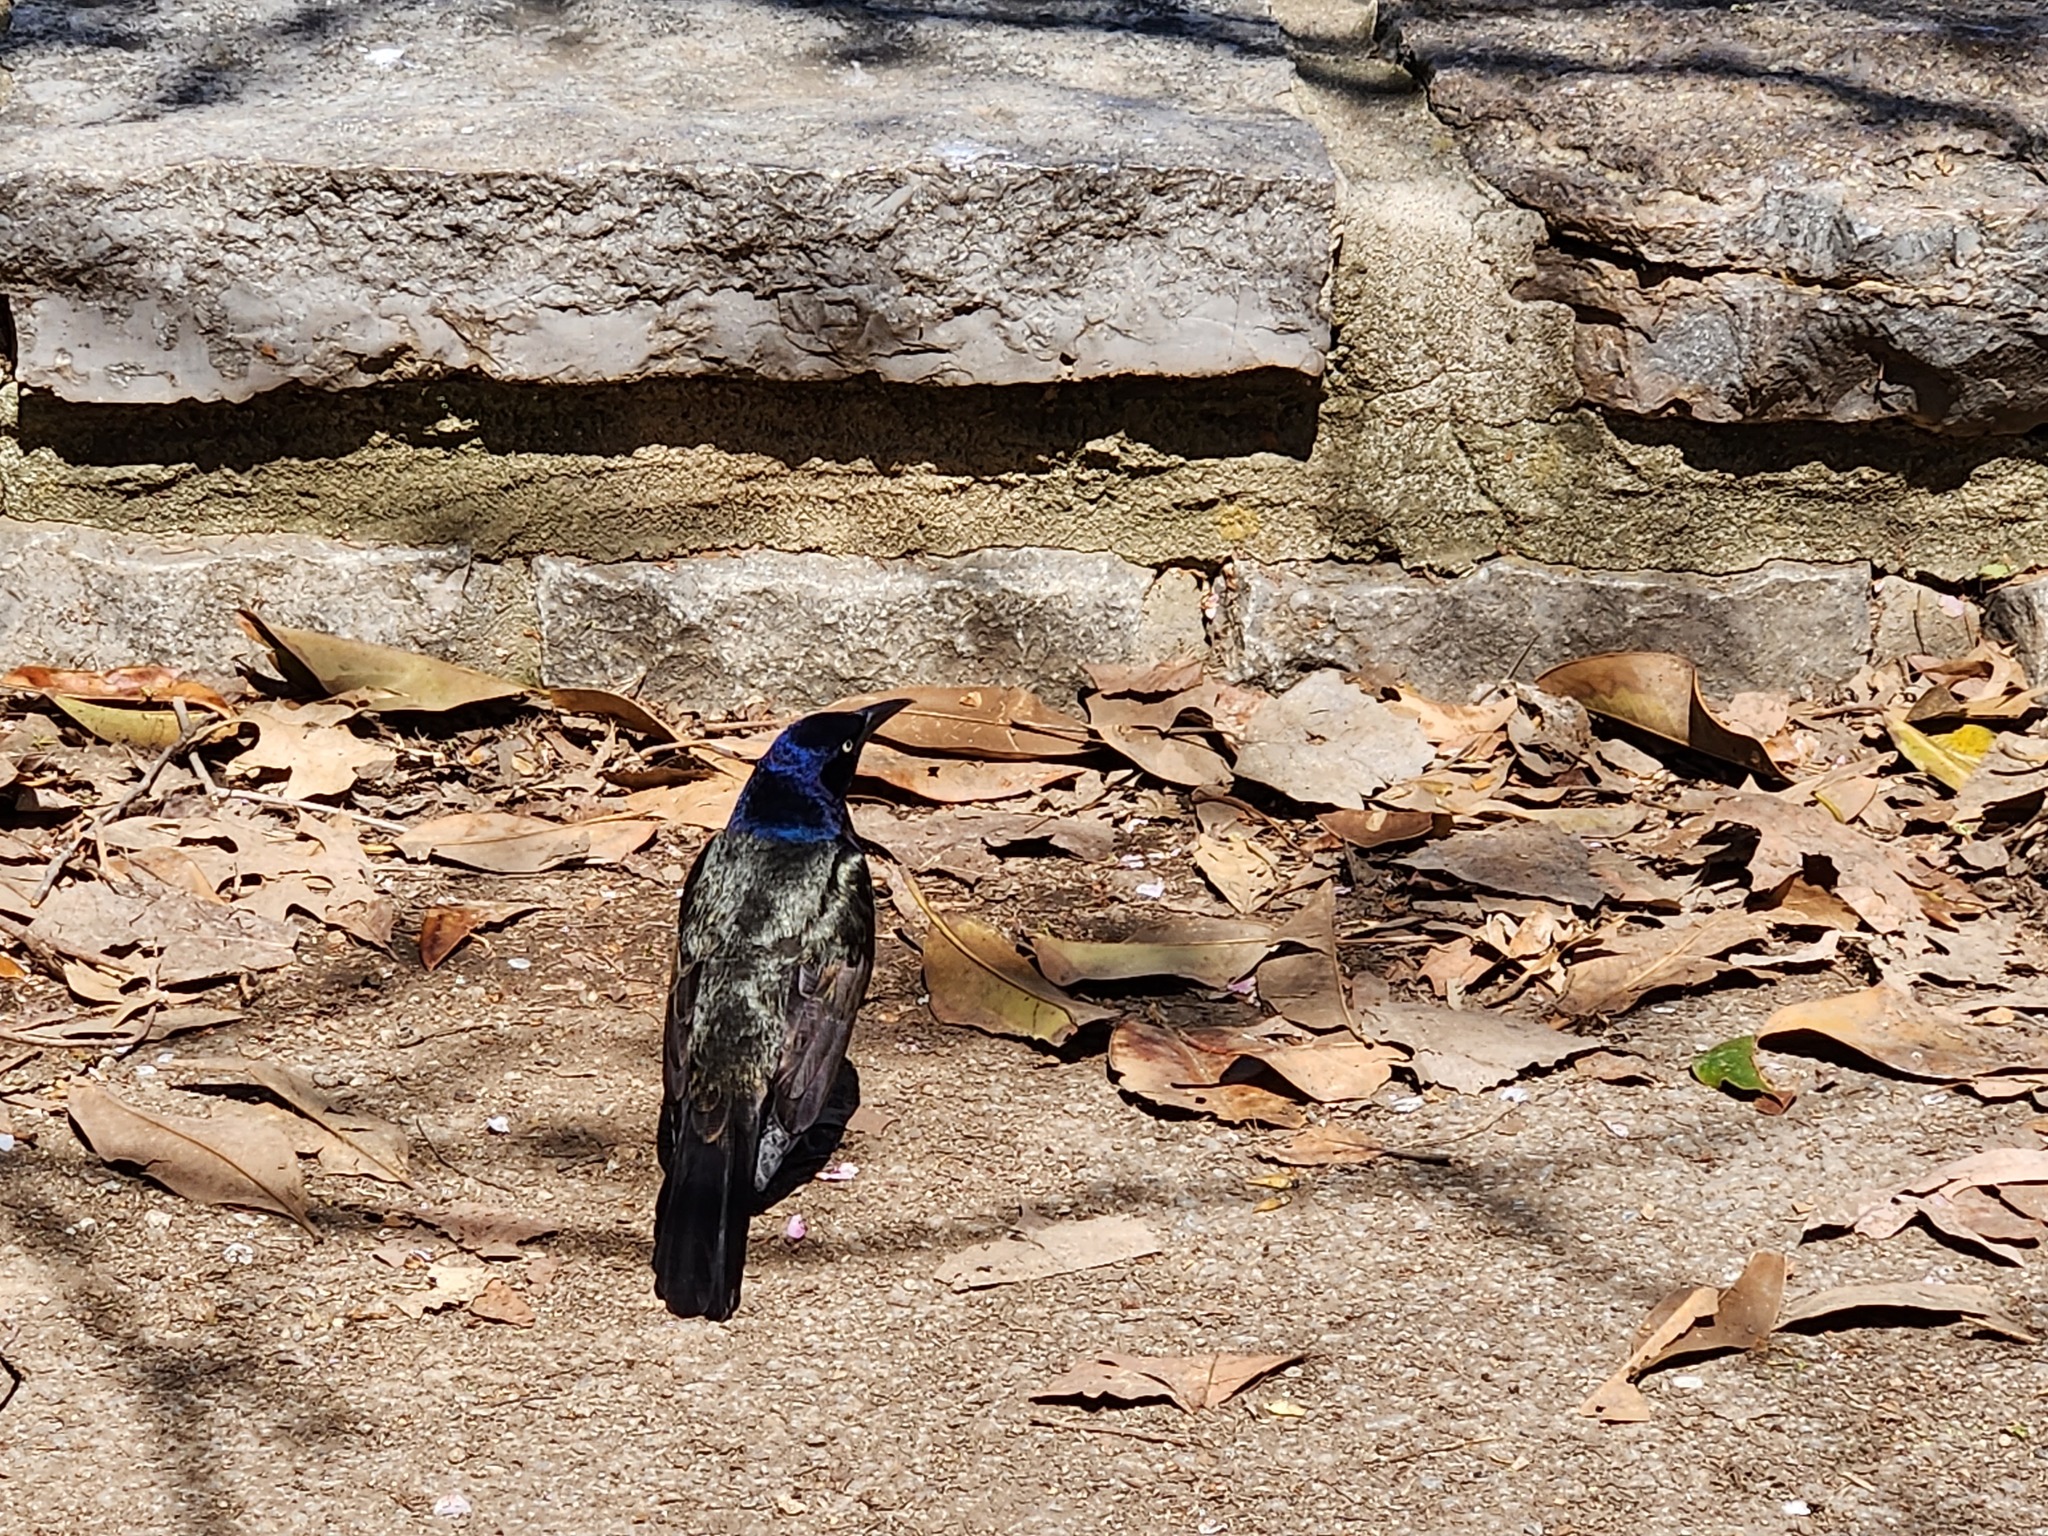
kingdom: Animalia
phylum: Chordata
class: Aves
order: Passeriformes
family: Icteridae
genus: Quiscalus
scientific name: Quiscalus quiscula
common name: Common grackle
